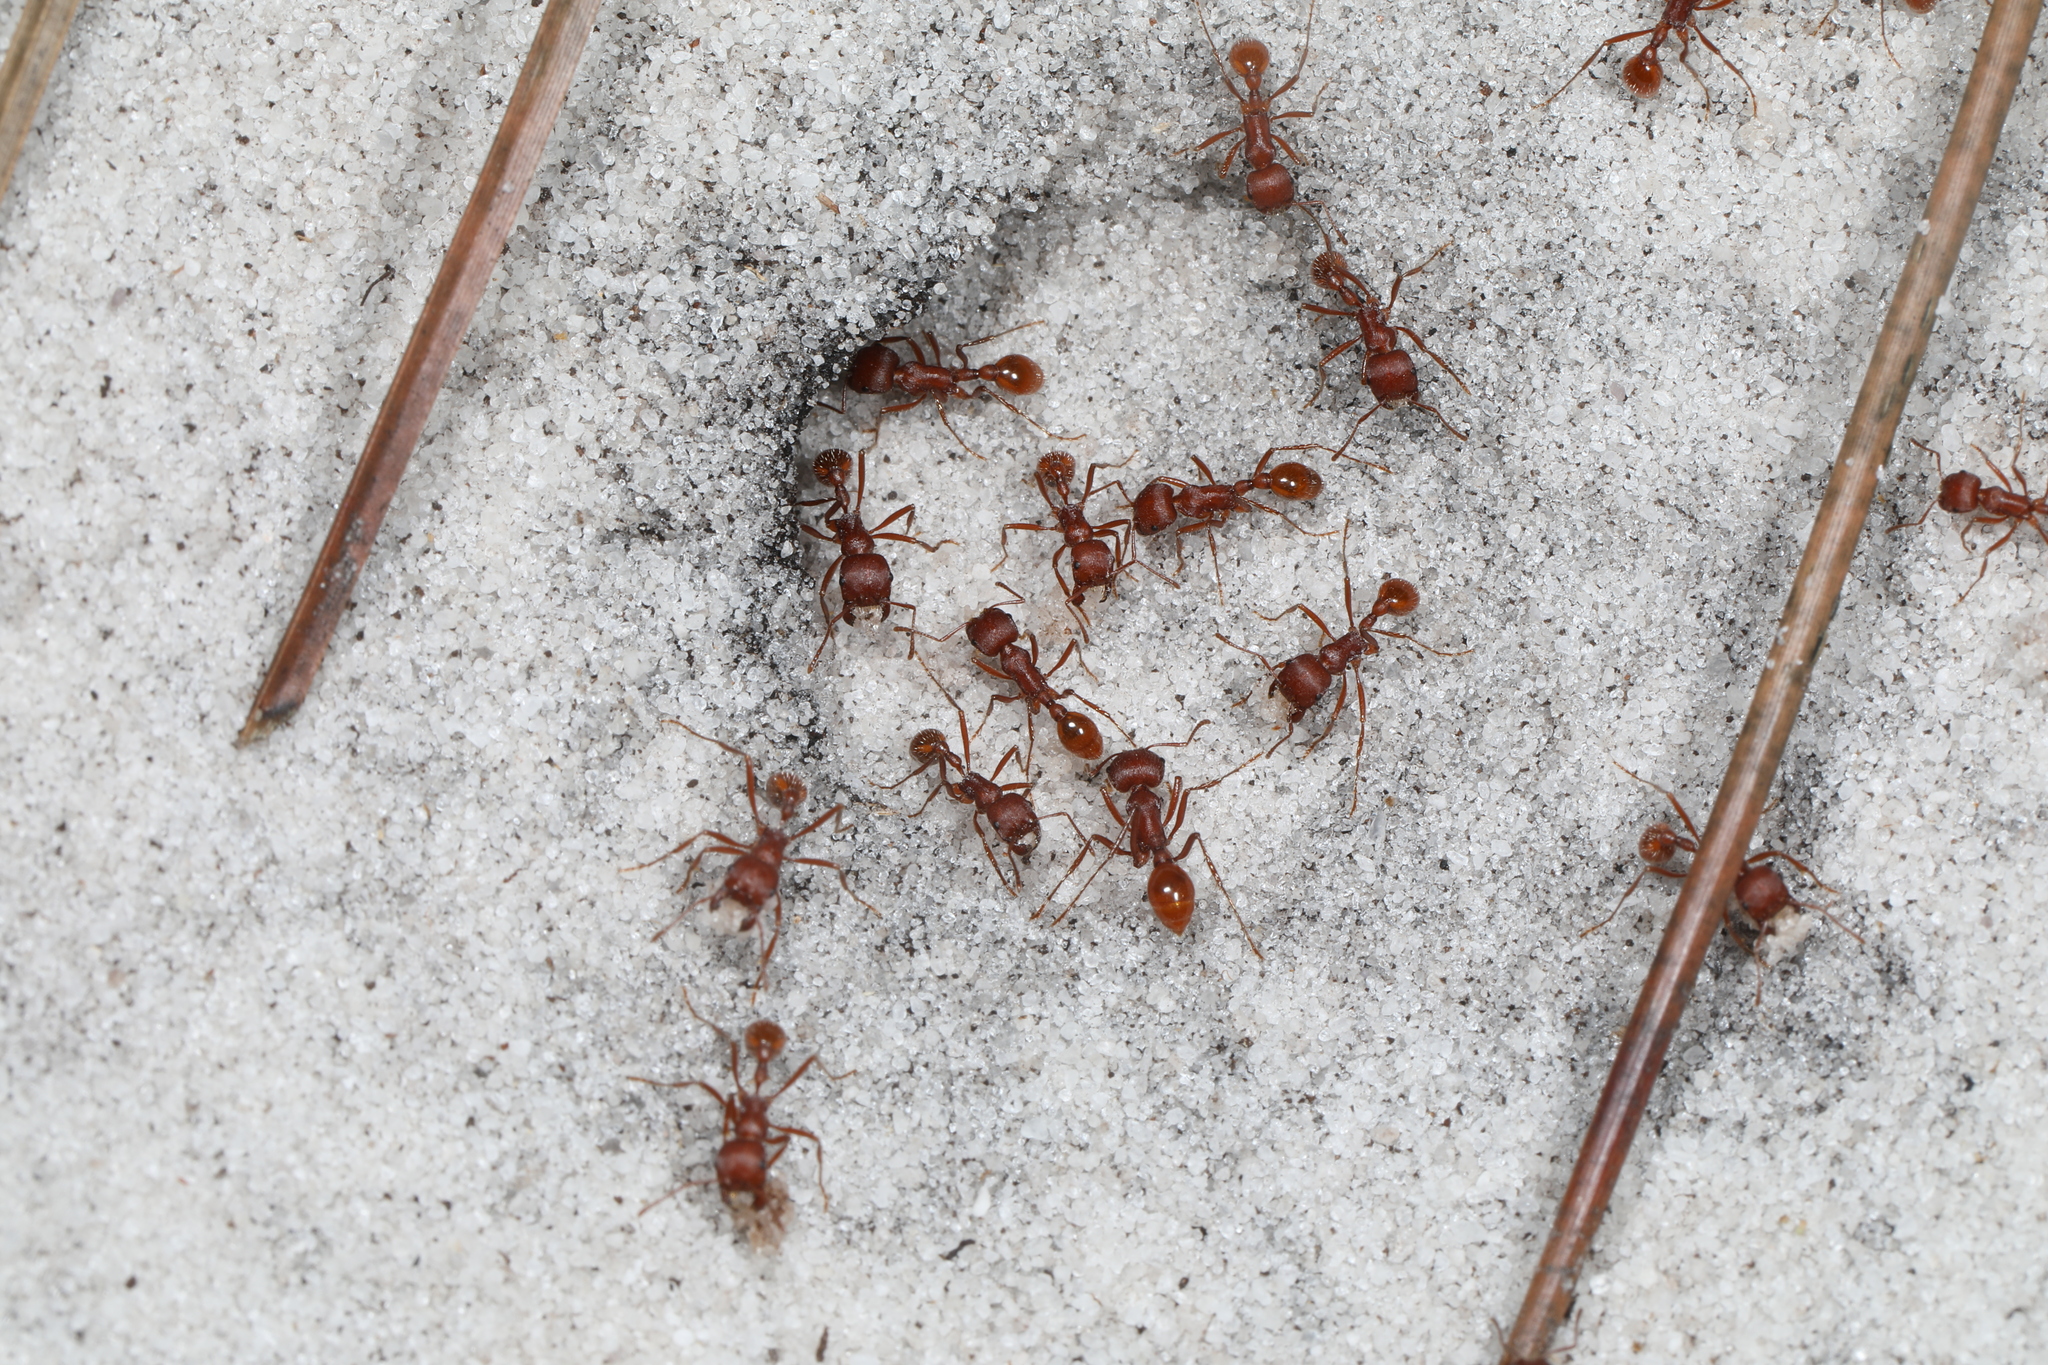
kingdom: Animalia
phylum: Arthropoda
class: Insecta
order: Hymenoptera
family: Formicidae
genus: Pogonomyrmex
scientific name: Pogonomyrmex badius
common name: Florida harvester ant
